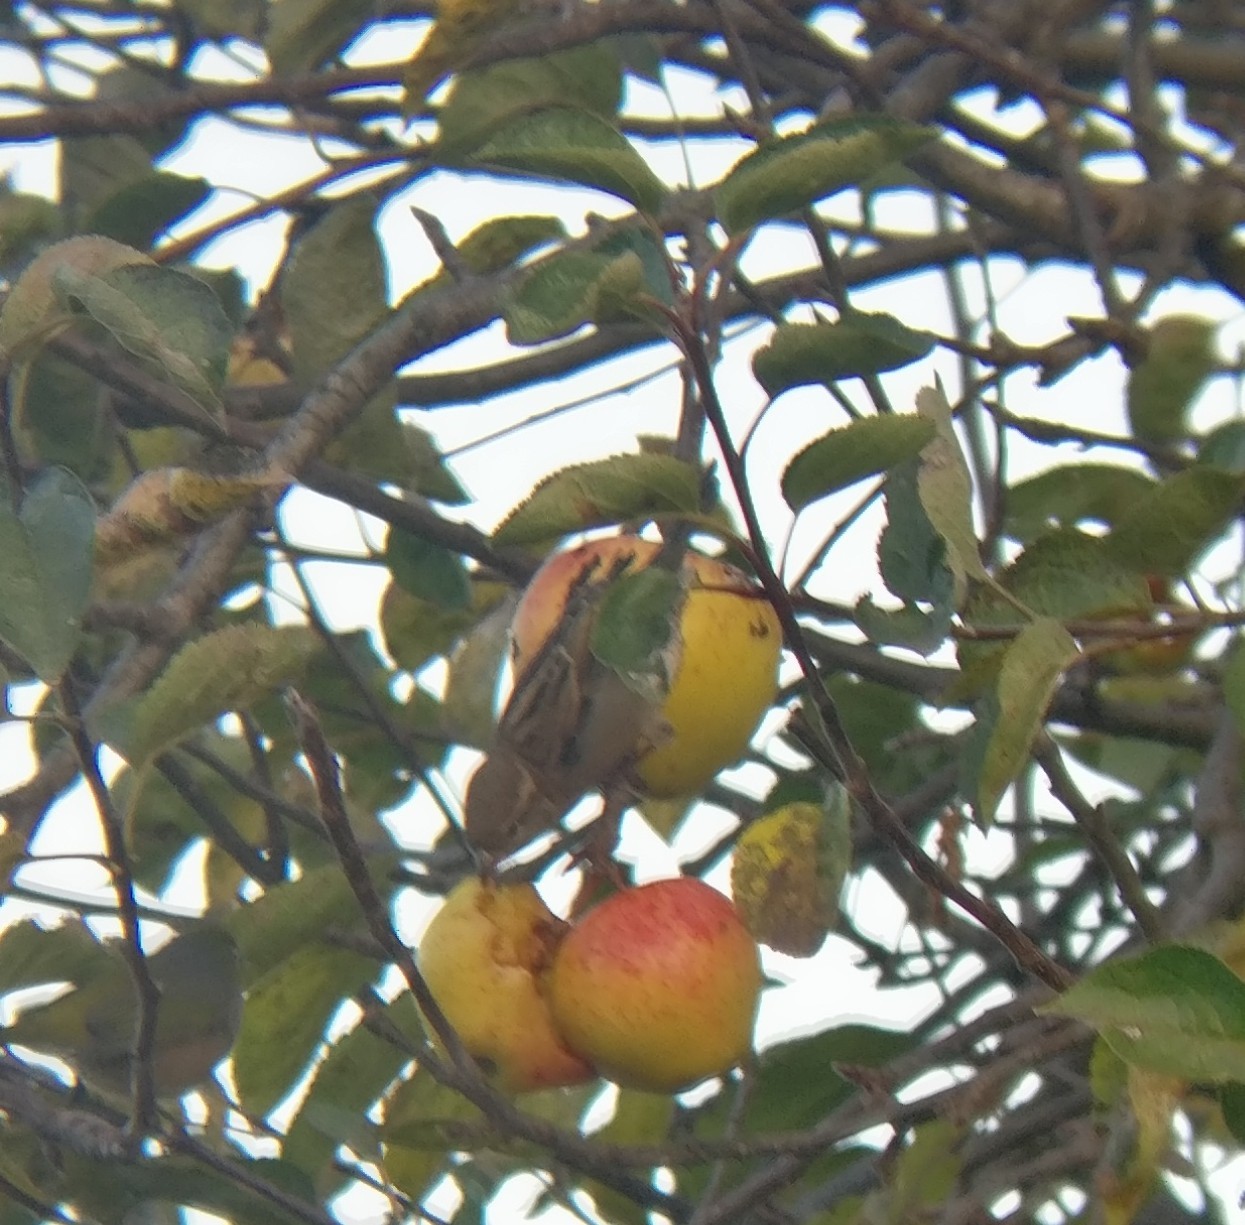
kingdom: Animalia
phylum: Chordata
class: Aves
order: Passeriformes
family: Passeridae
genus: Passer
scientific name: Passer domesticus
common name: House sparrow
